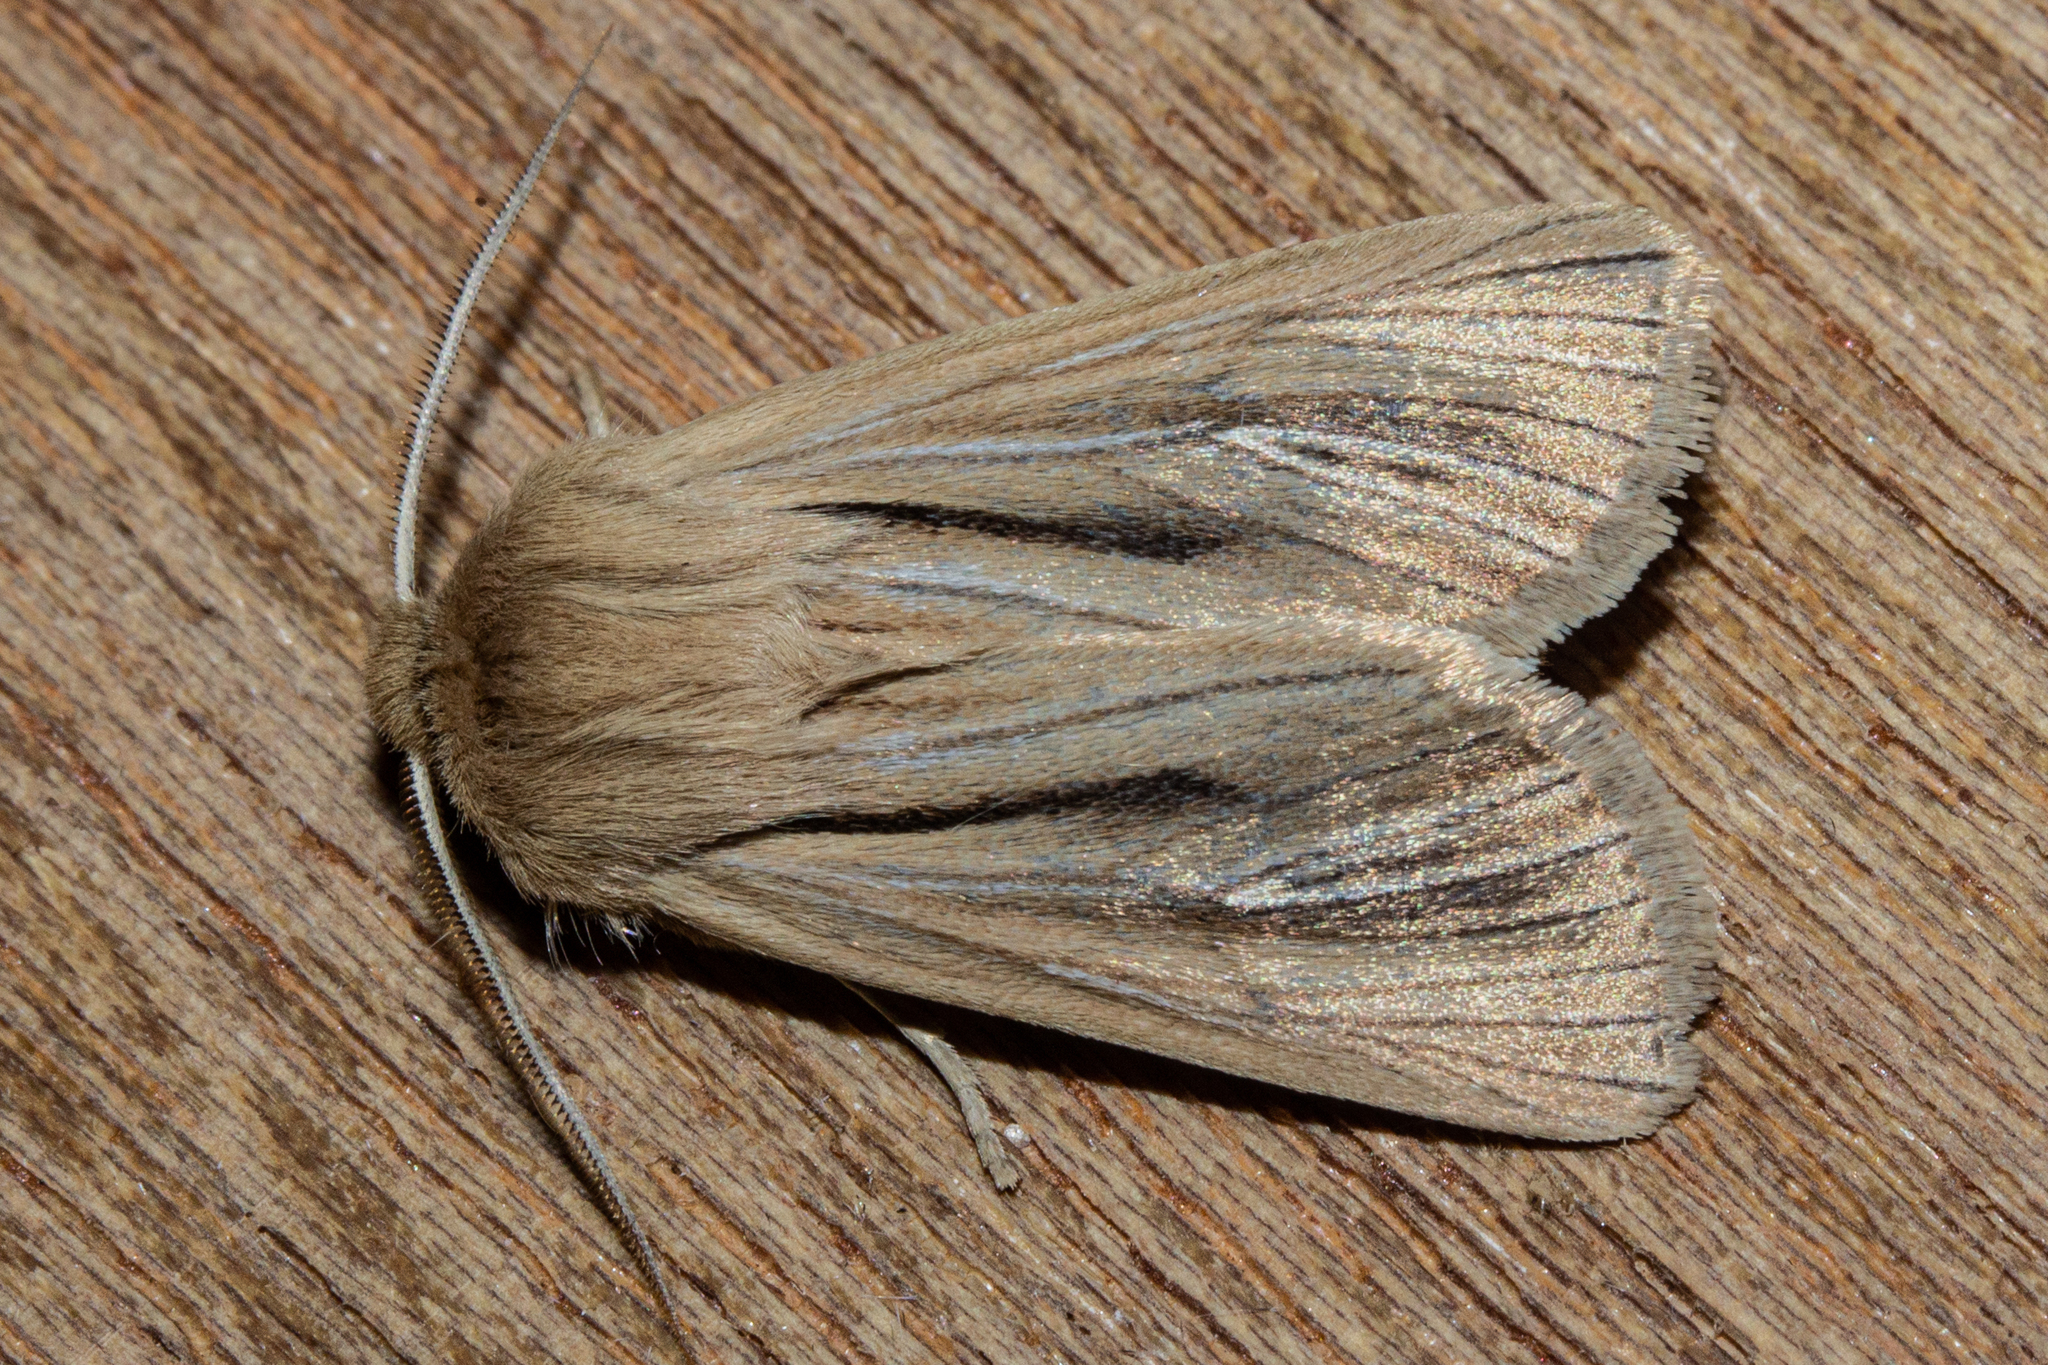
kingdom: Animalia
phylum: Arthropoda
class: Insecta
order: Lepidoptera
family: Noctuidae
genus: Ichneutica
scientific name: Ichneutica
